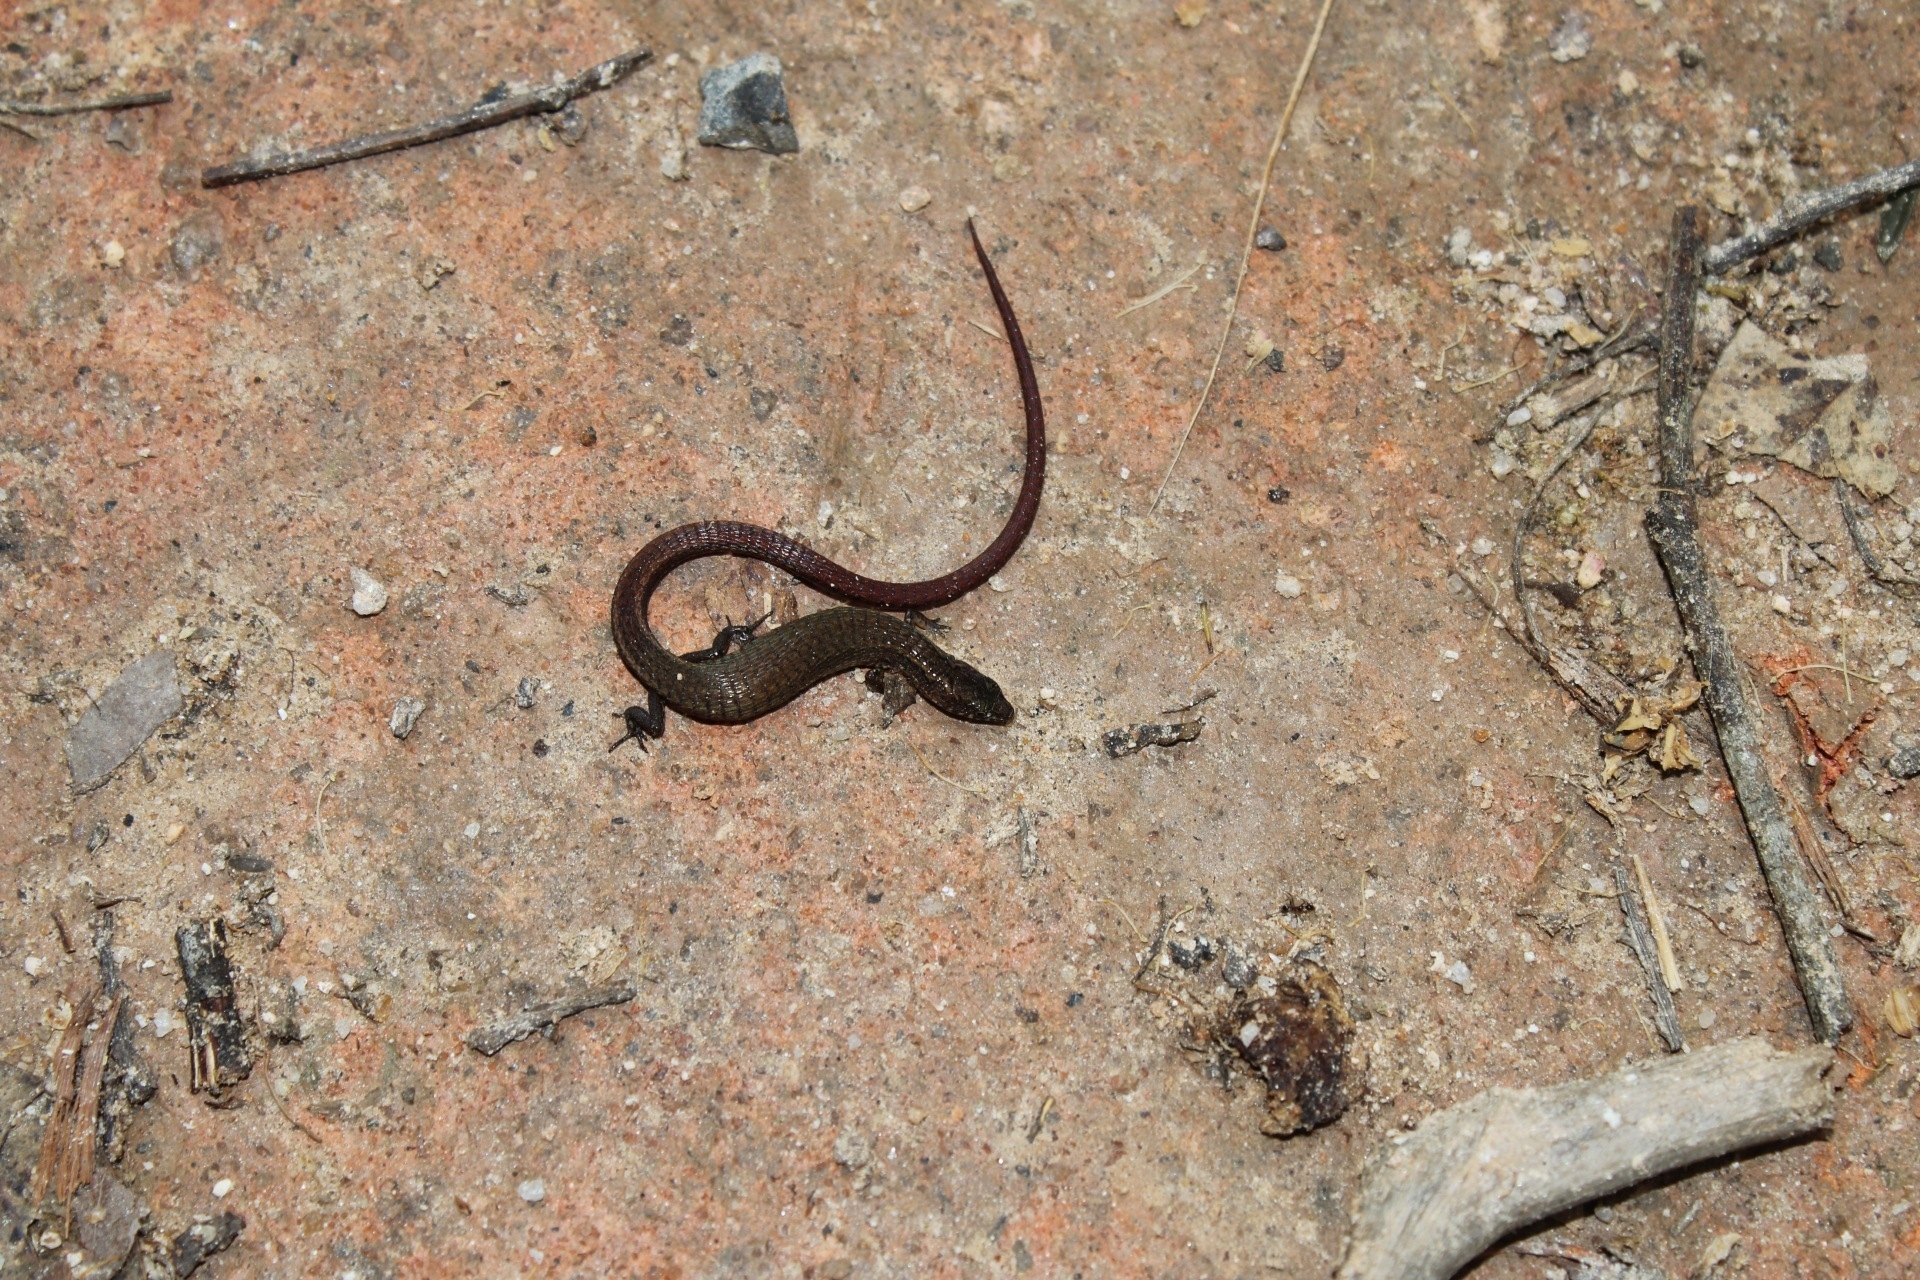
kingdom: Animalia
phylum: Chordata
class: Squamata
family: Gymnophthalmidae
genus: Ecpleopus
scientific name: Ecpleopus gaudichaudii
